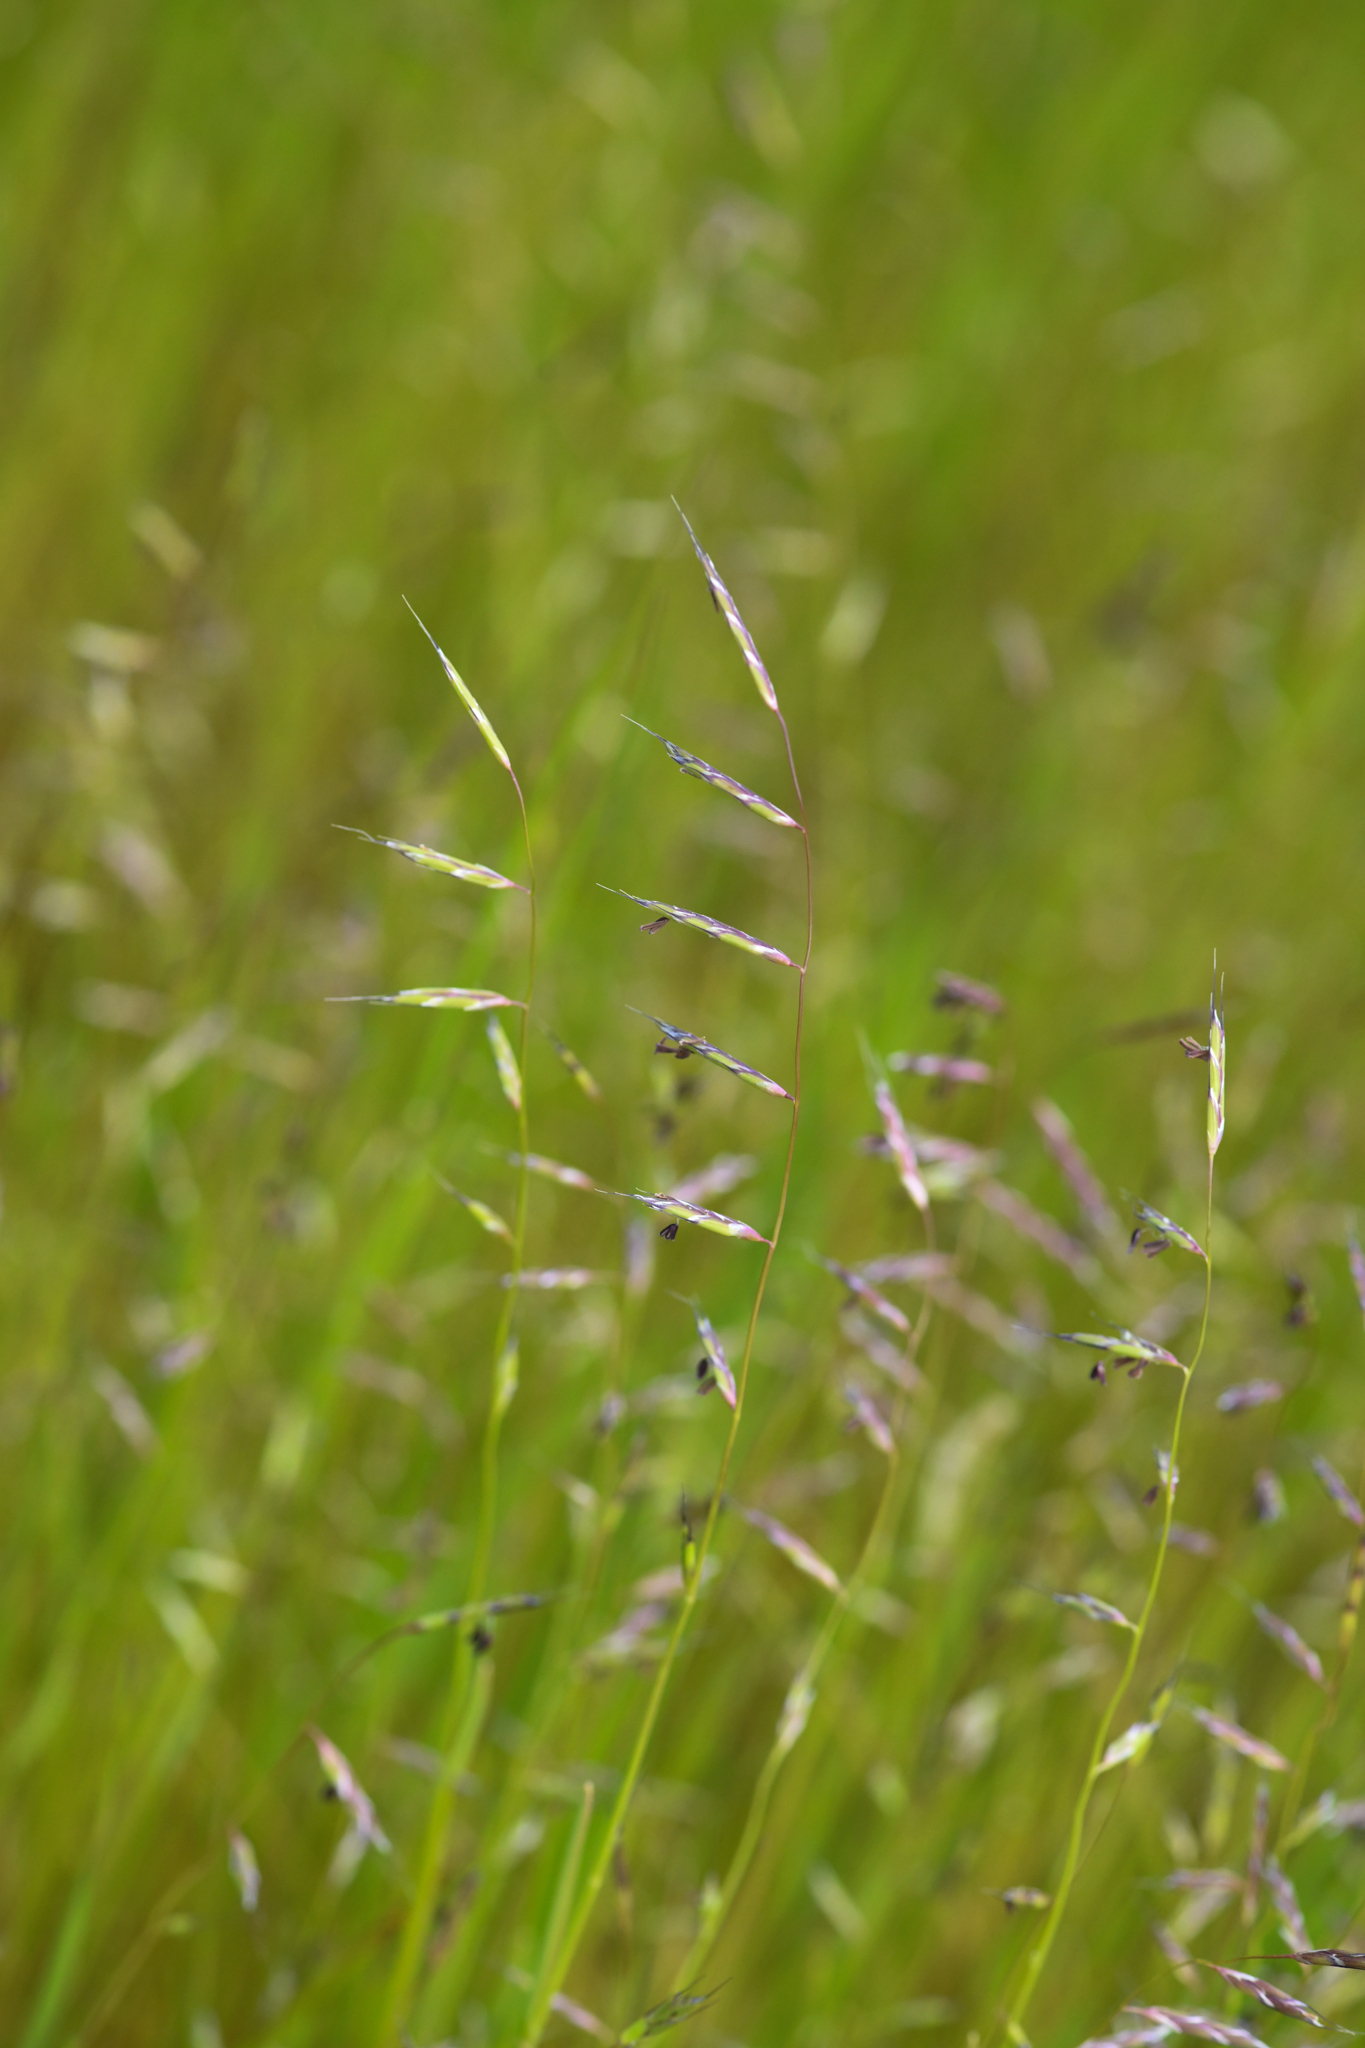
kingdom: Plantae
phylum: Tracheophyta
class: Liliopsida
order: Poales
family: Poaceae
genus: Pleuropogon
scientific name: Pleuropogon californicus
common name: California semaphore grass
